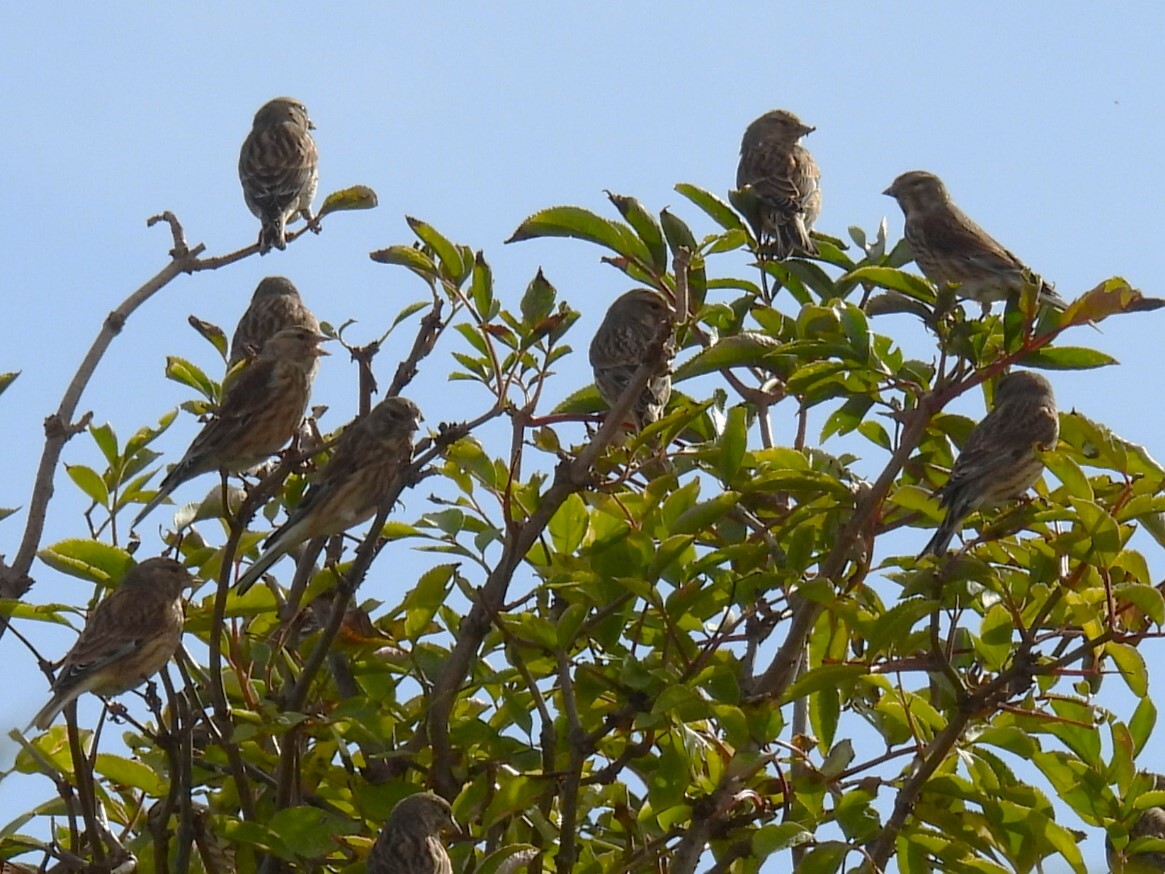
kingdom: Animalia
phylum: Chordata
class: Aves
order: Passeriformes
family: Fringillidae
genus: Linaria
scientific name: Linaria cannabina
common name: Common linnet
